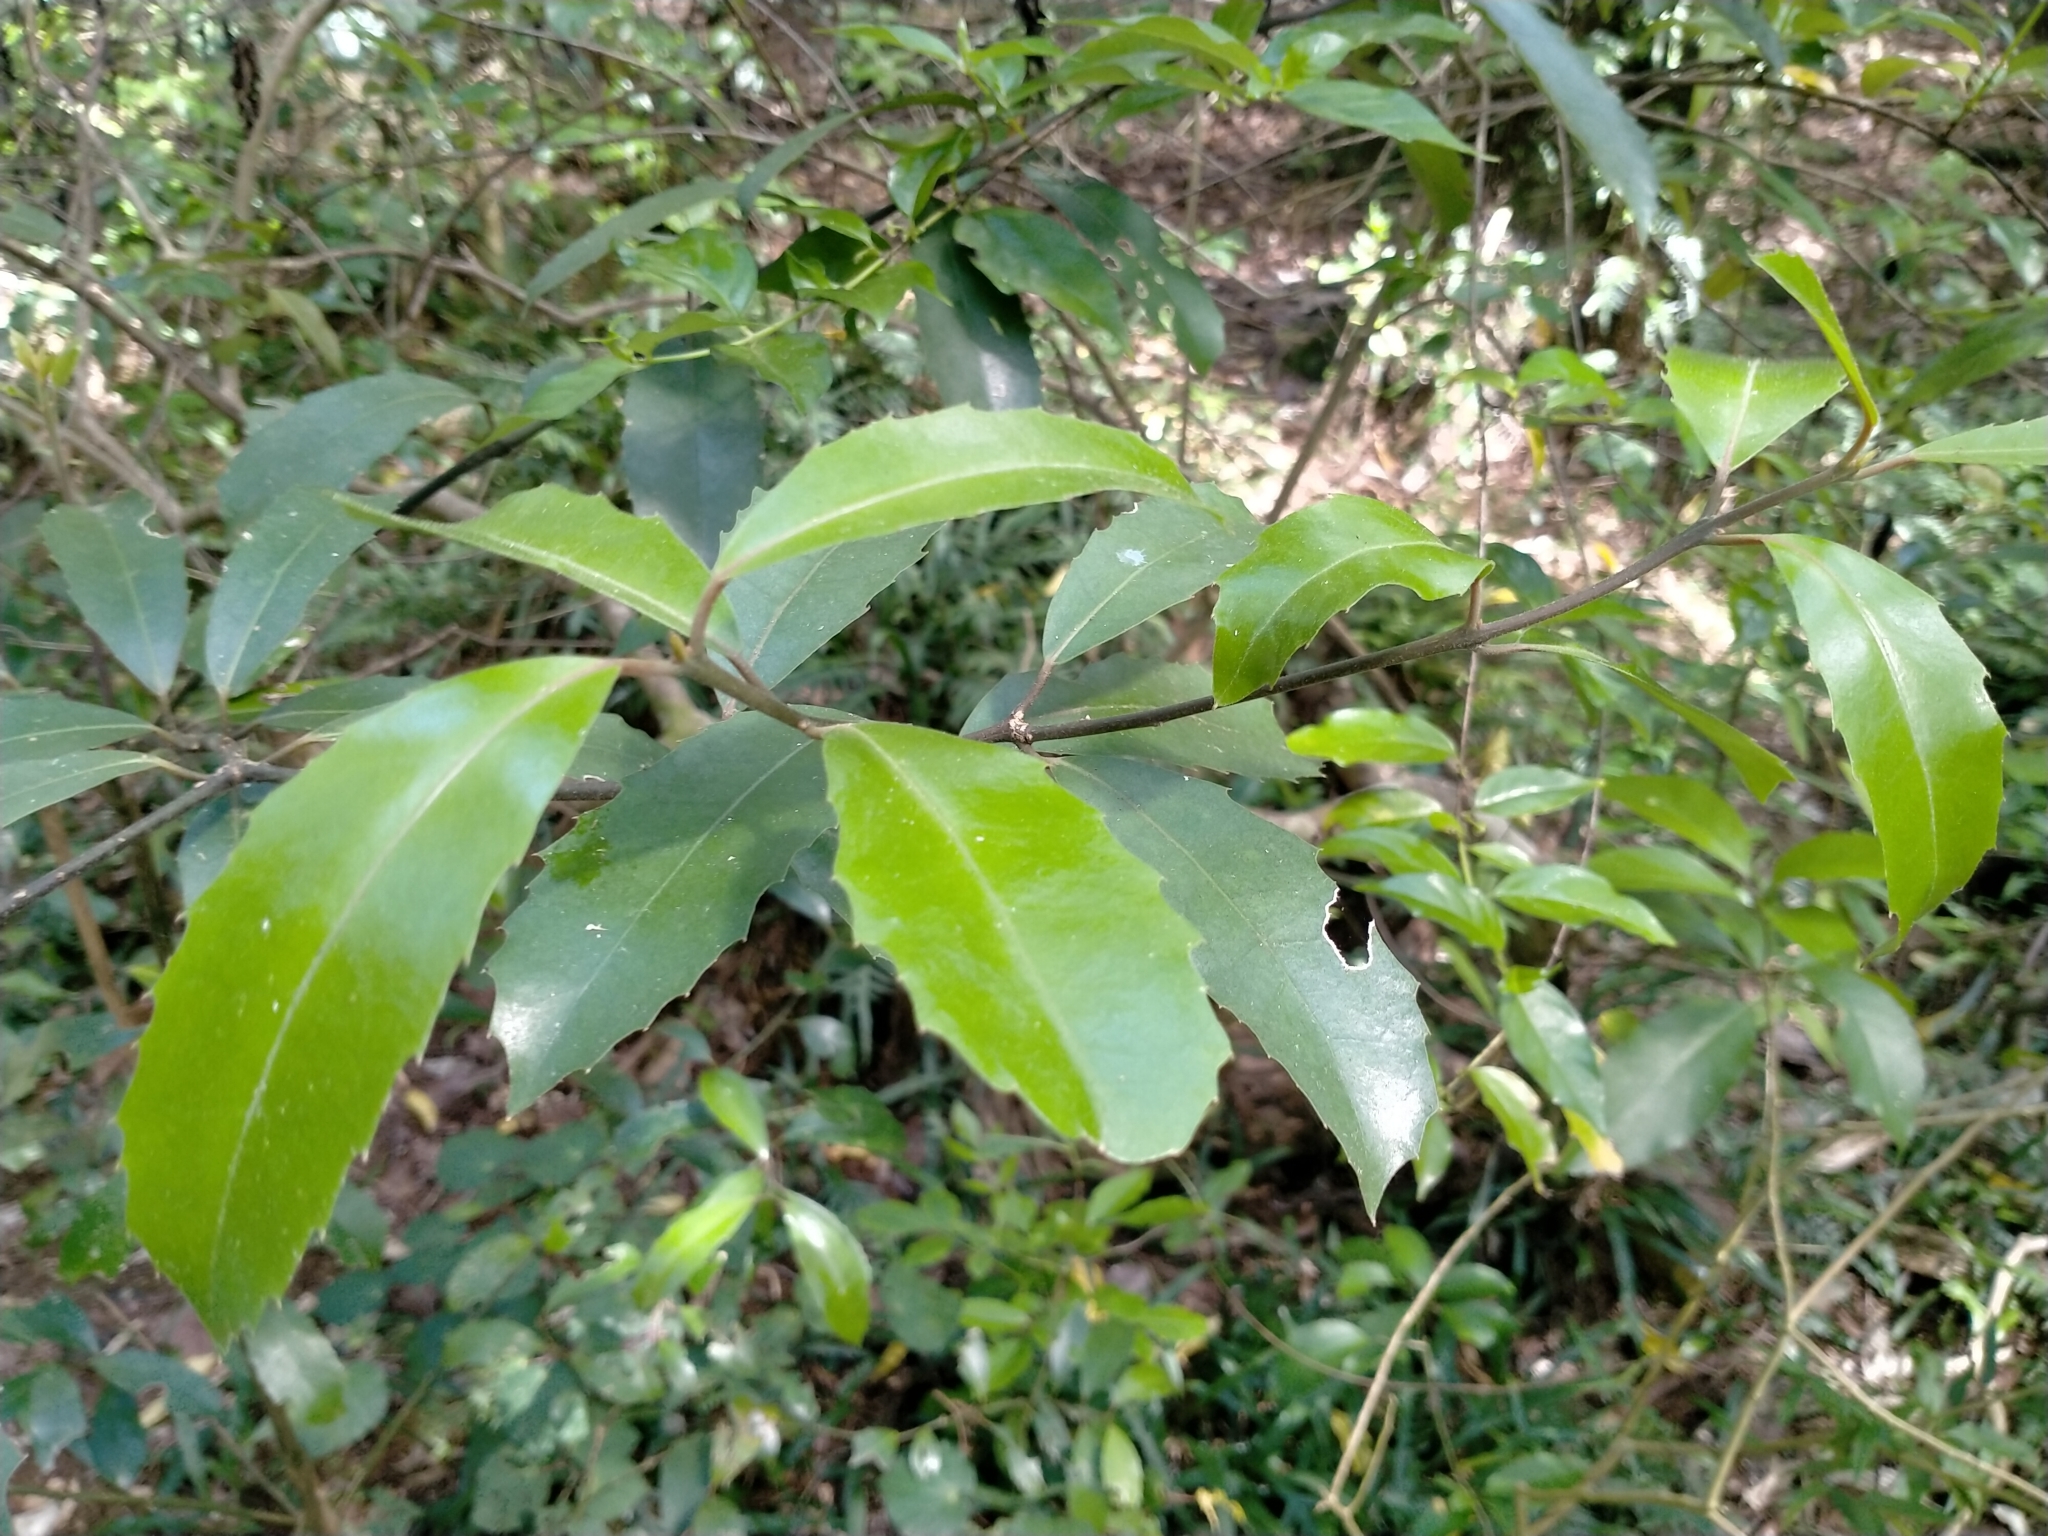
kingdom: Plantae
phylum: Tracheophyta
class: Magnoliopsida
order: Laurales
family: Monimiaceae
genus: Hedycarya
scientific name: Hedycarya arborea
